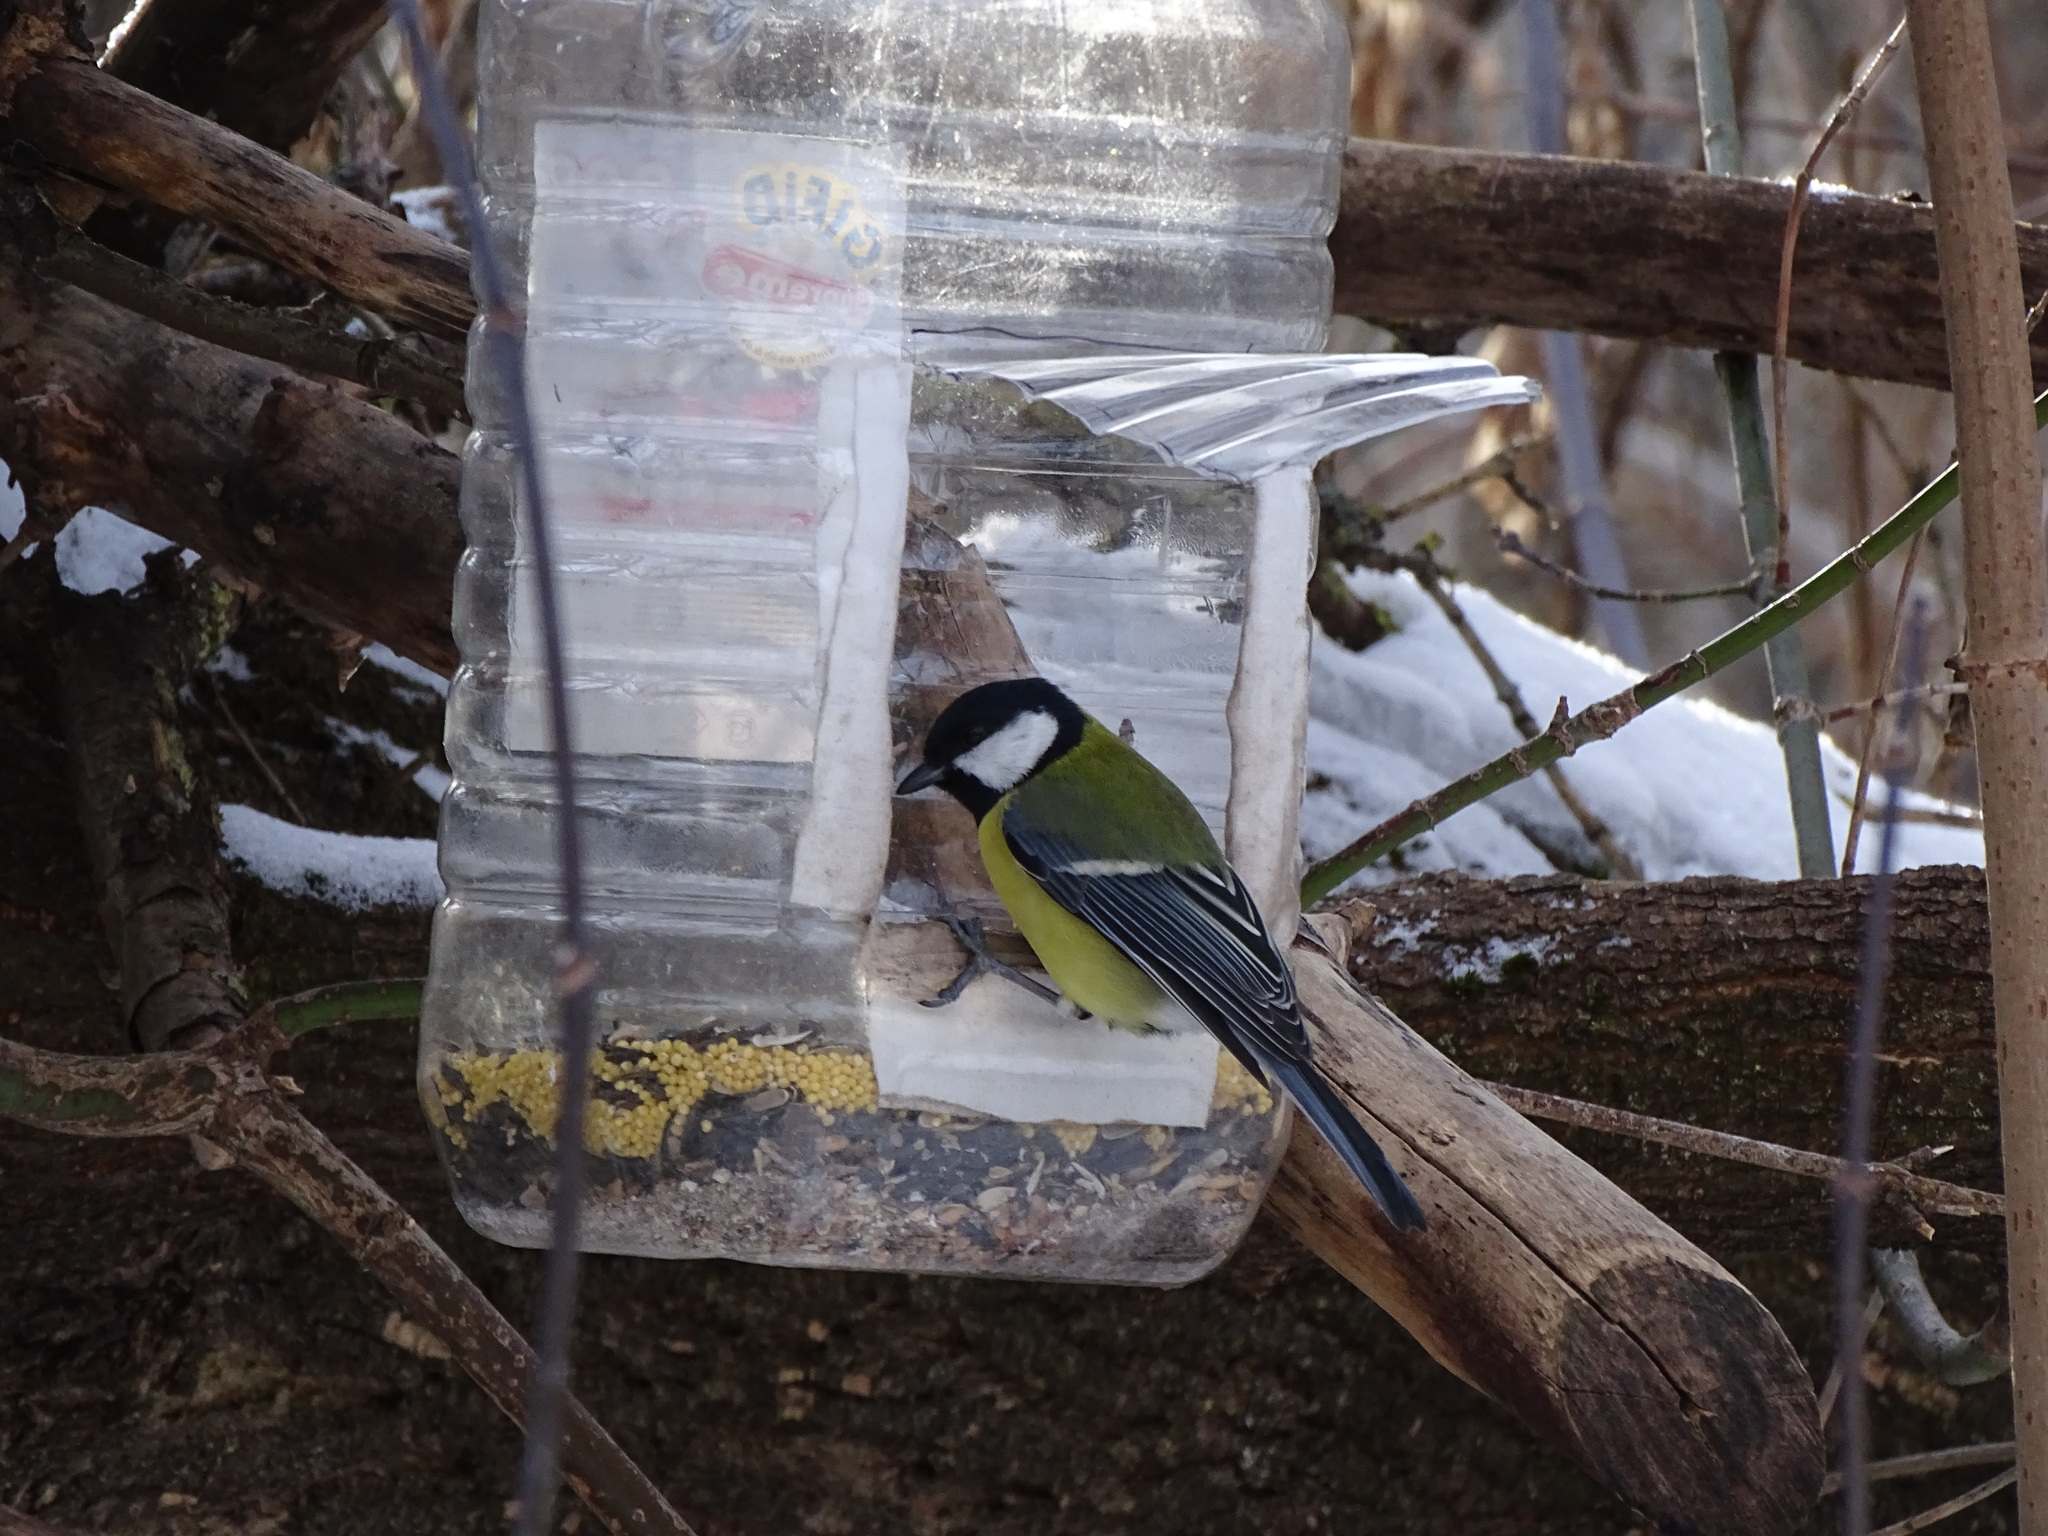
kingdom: Animalia
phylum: Chordata
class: Aves
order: Passeriformes
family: Paridae
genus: Parus
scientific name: Parus major
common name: Great tit
